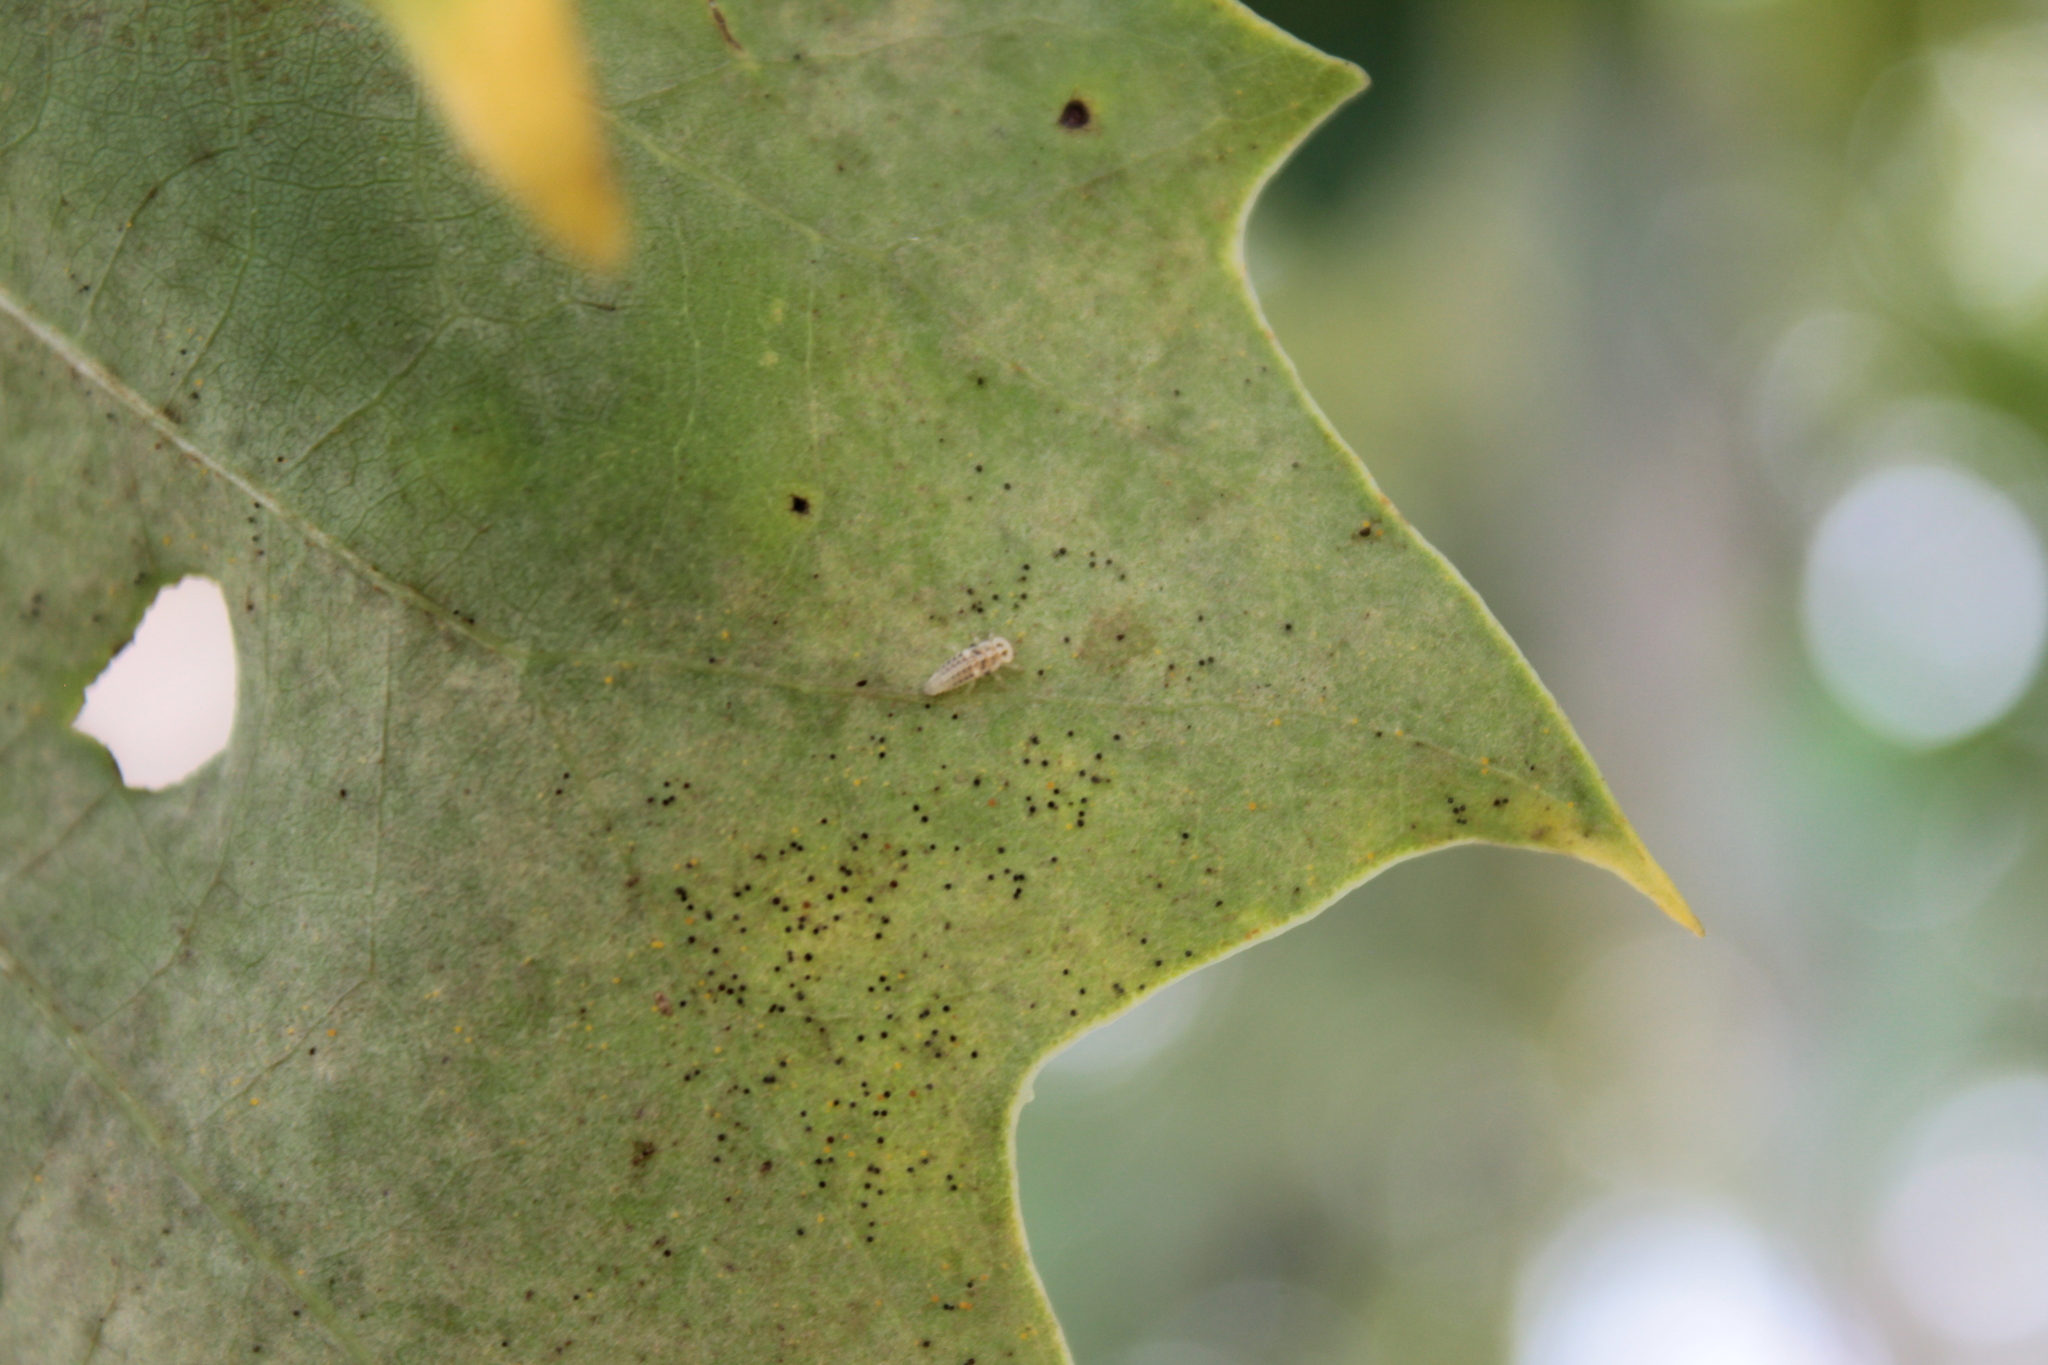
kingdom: Animalia
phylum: Arthropoda
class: Insecta
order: Coleoptera
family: Coccinellidae
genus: Psyllobora
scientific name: Psyllobora vigintimaculata
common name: Ladybird beetle
